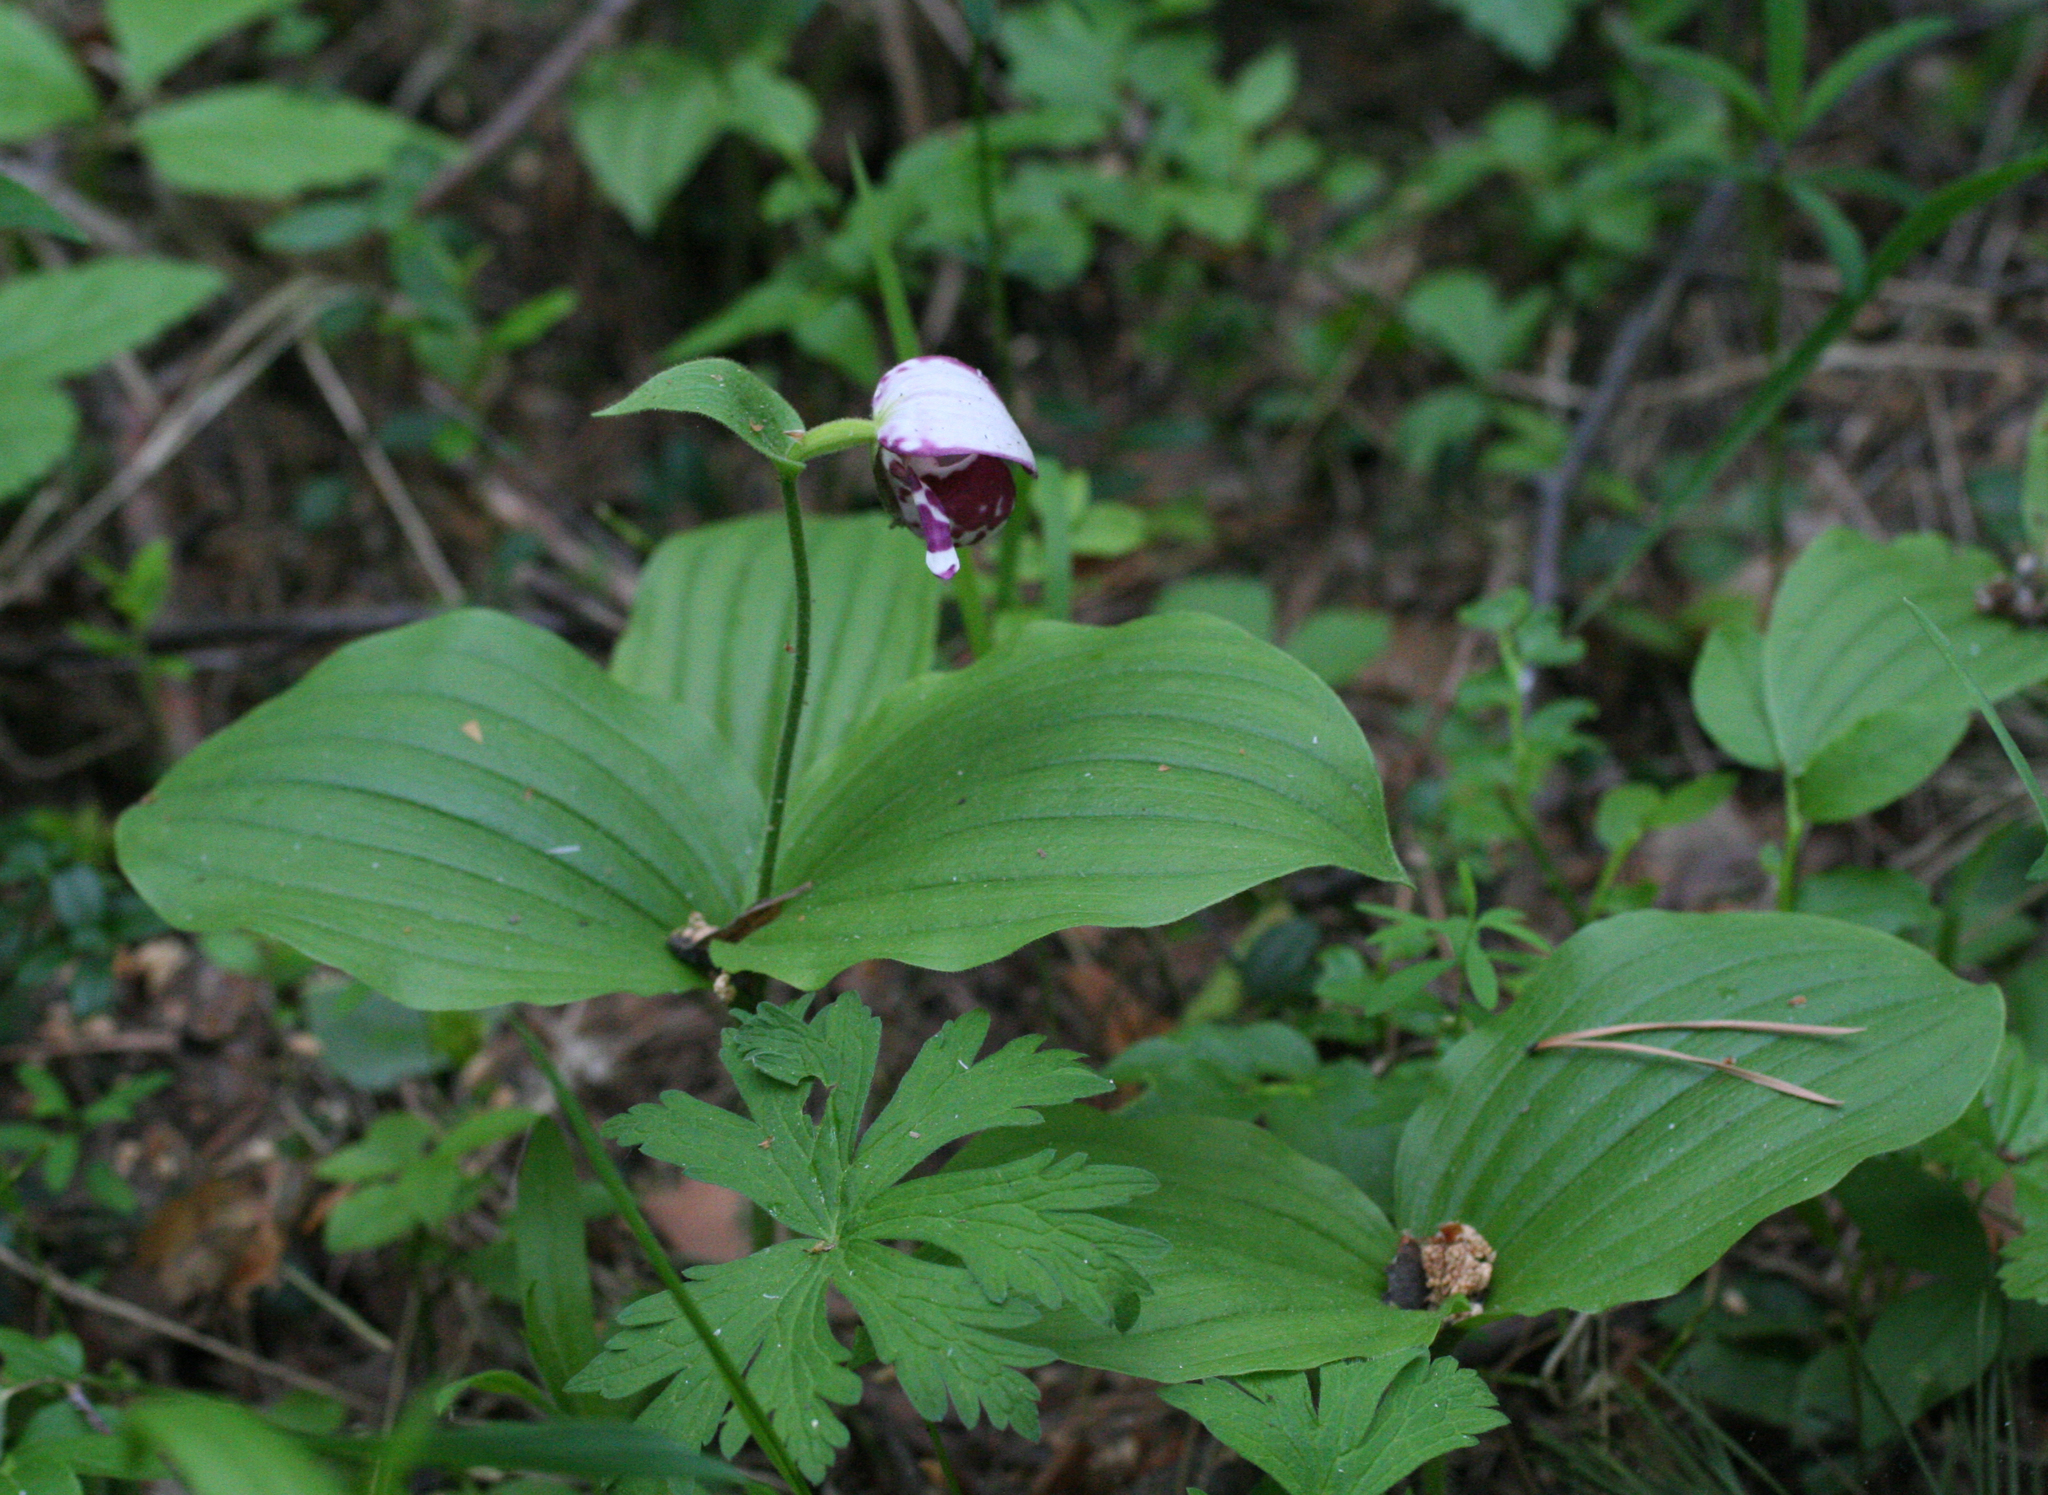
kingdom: Plantae
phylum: Tracheophyta
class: Liliopsida
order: Asparagales
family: Orchidaceae
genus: Cypripedium
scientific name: Cypripedium guttatum
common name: Pink lady slipper
